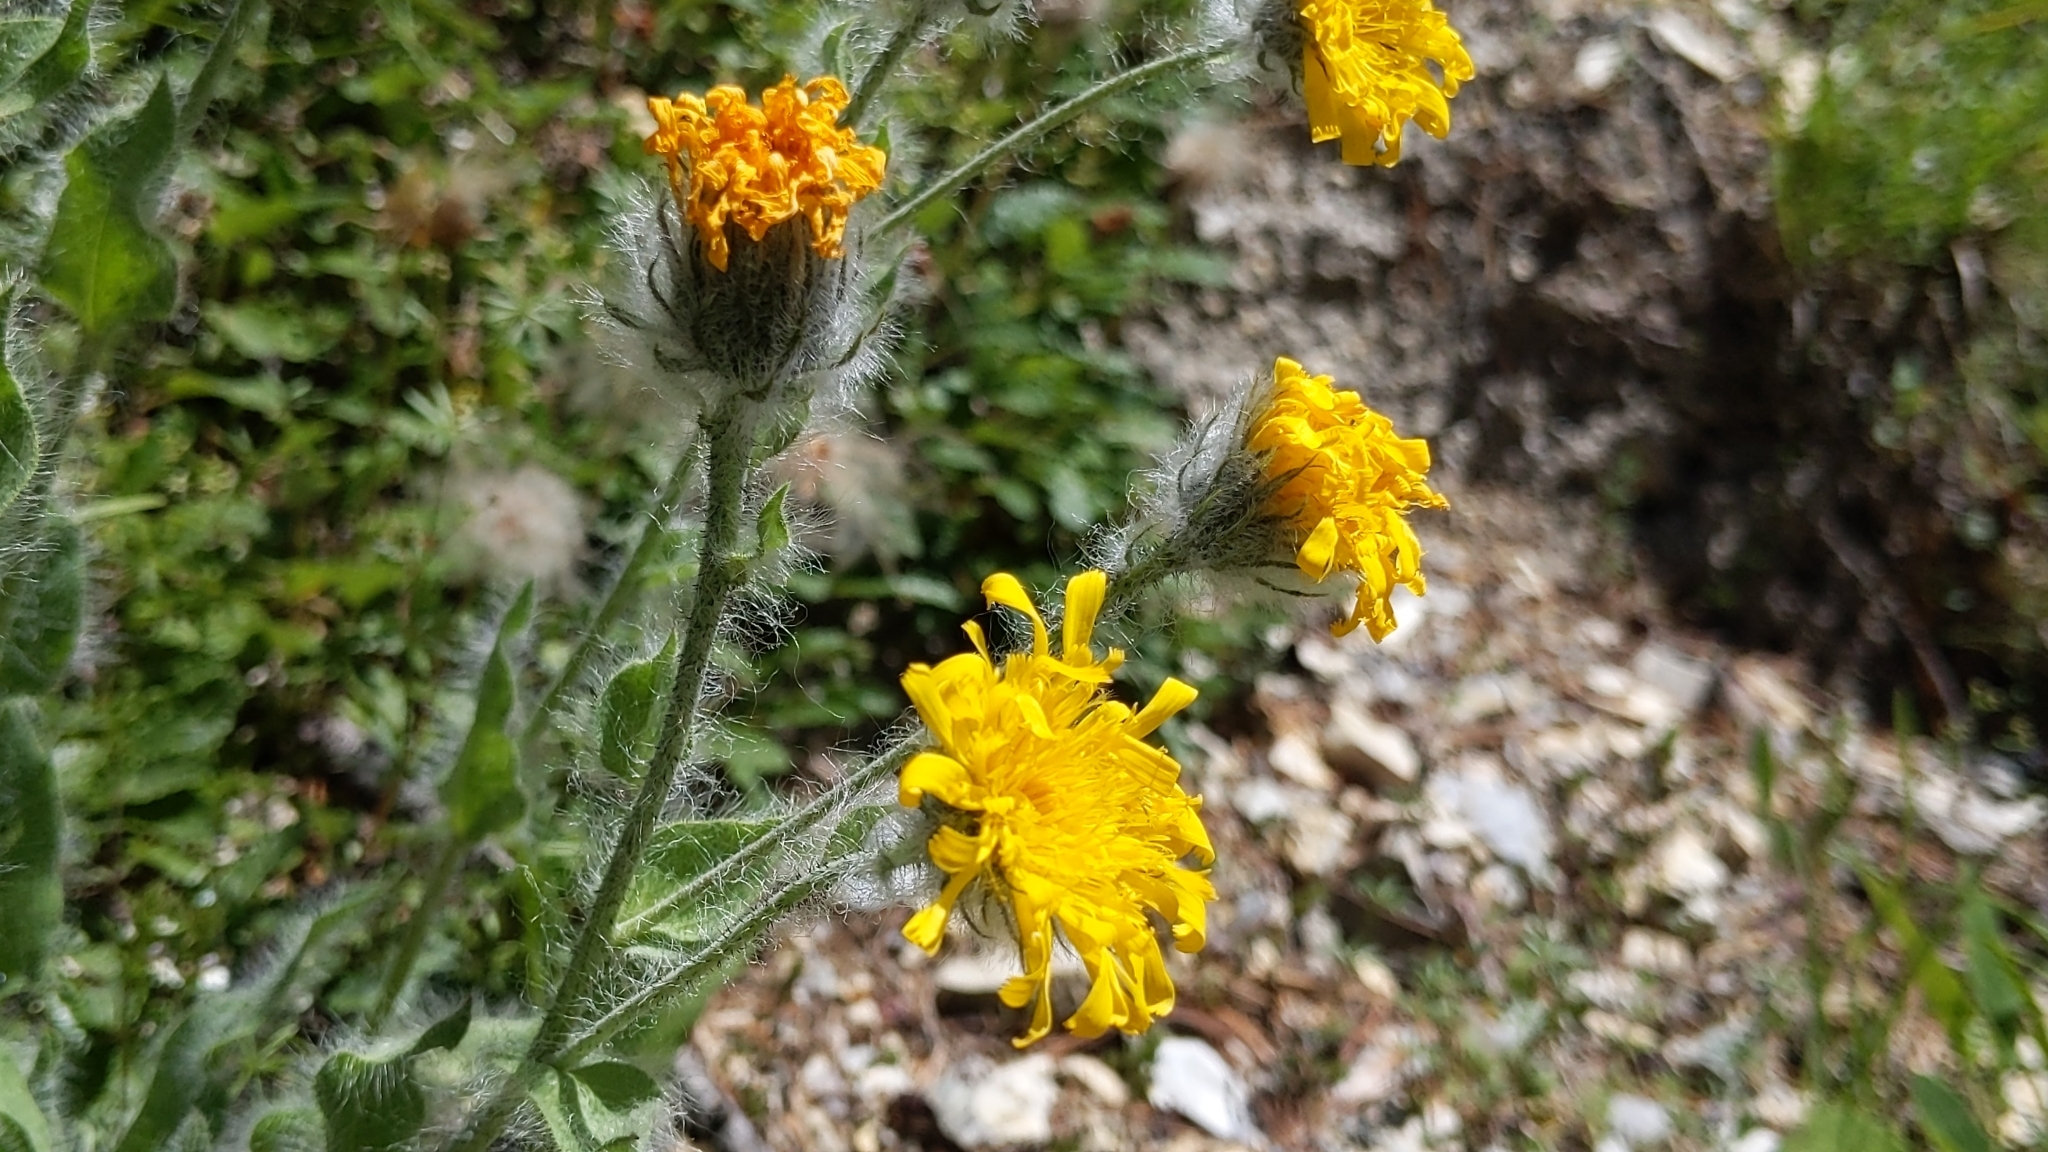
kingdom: Plantae
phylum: Tracheophyta
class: Magnoliopsida
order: Asterales
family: Asteraceae
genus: Hieracium
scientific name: Hieracium villosum
